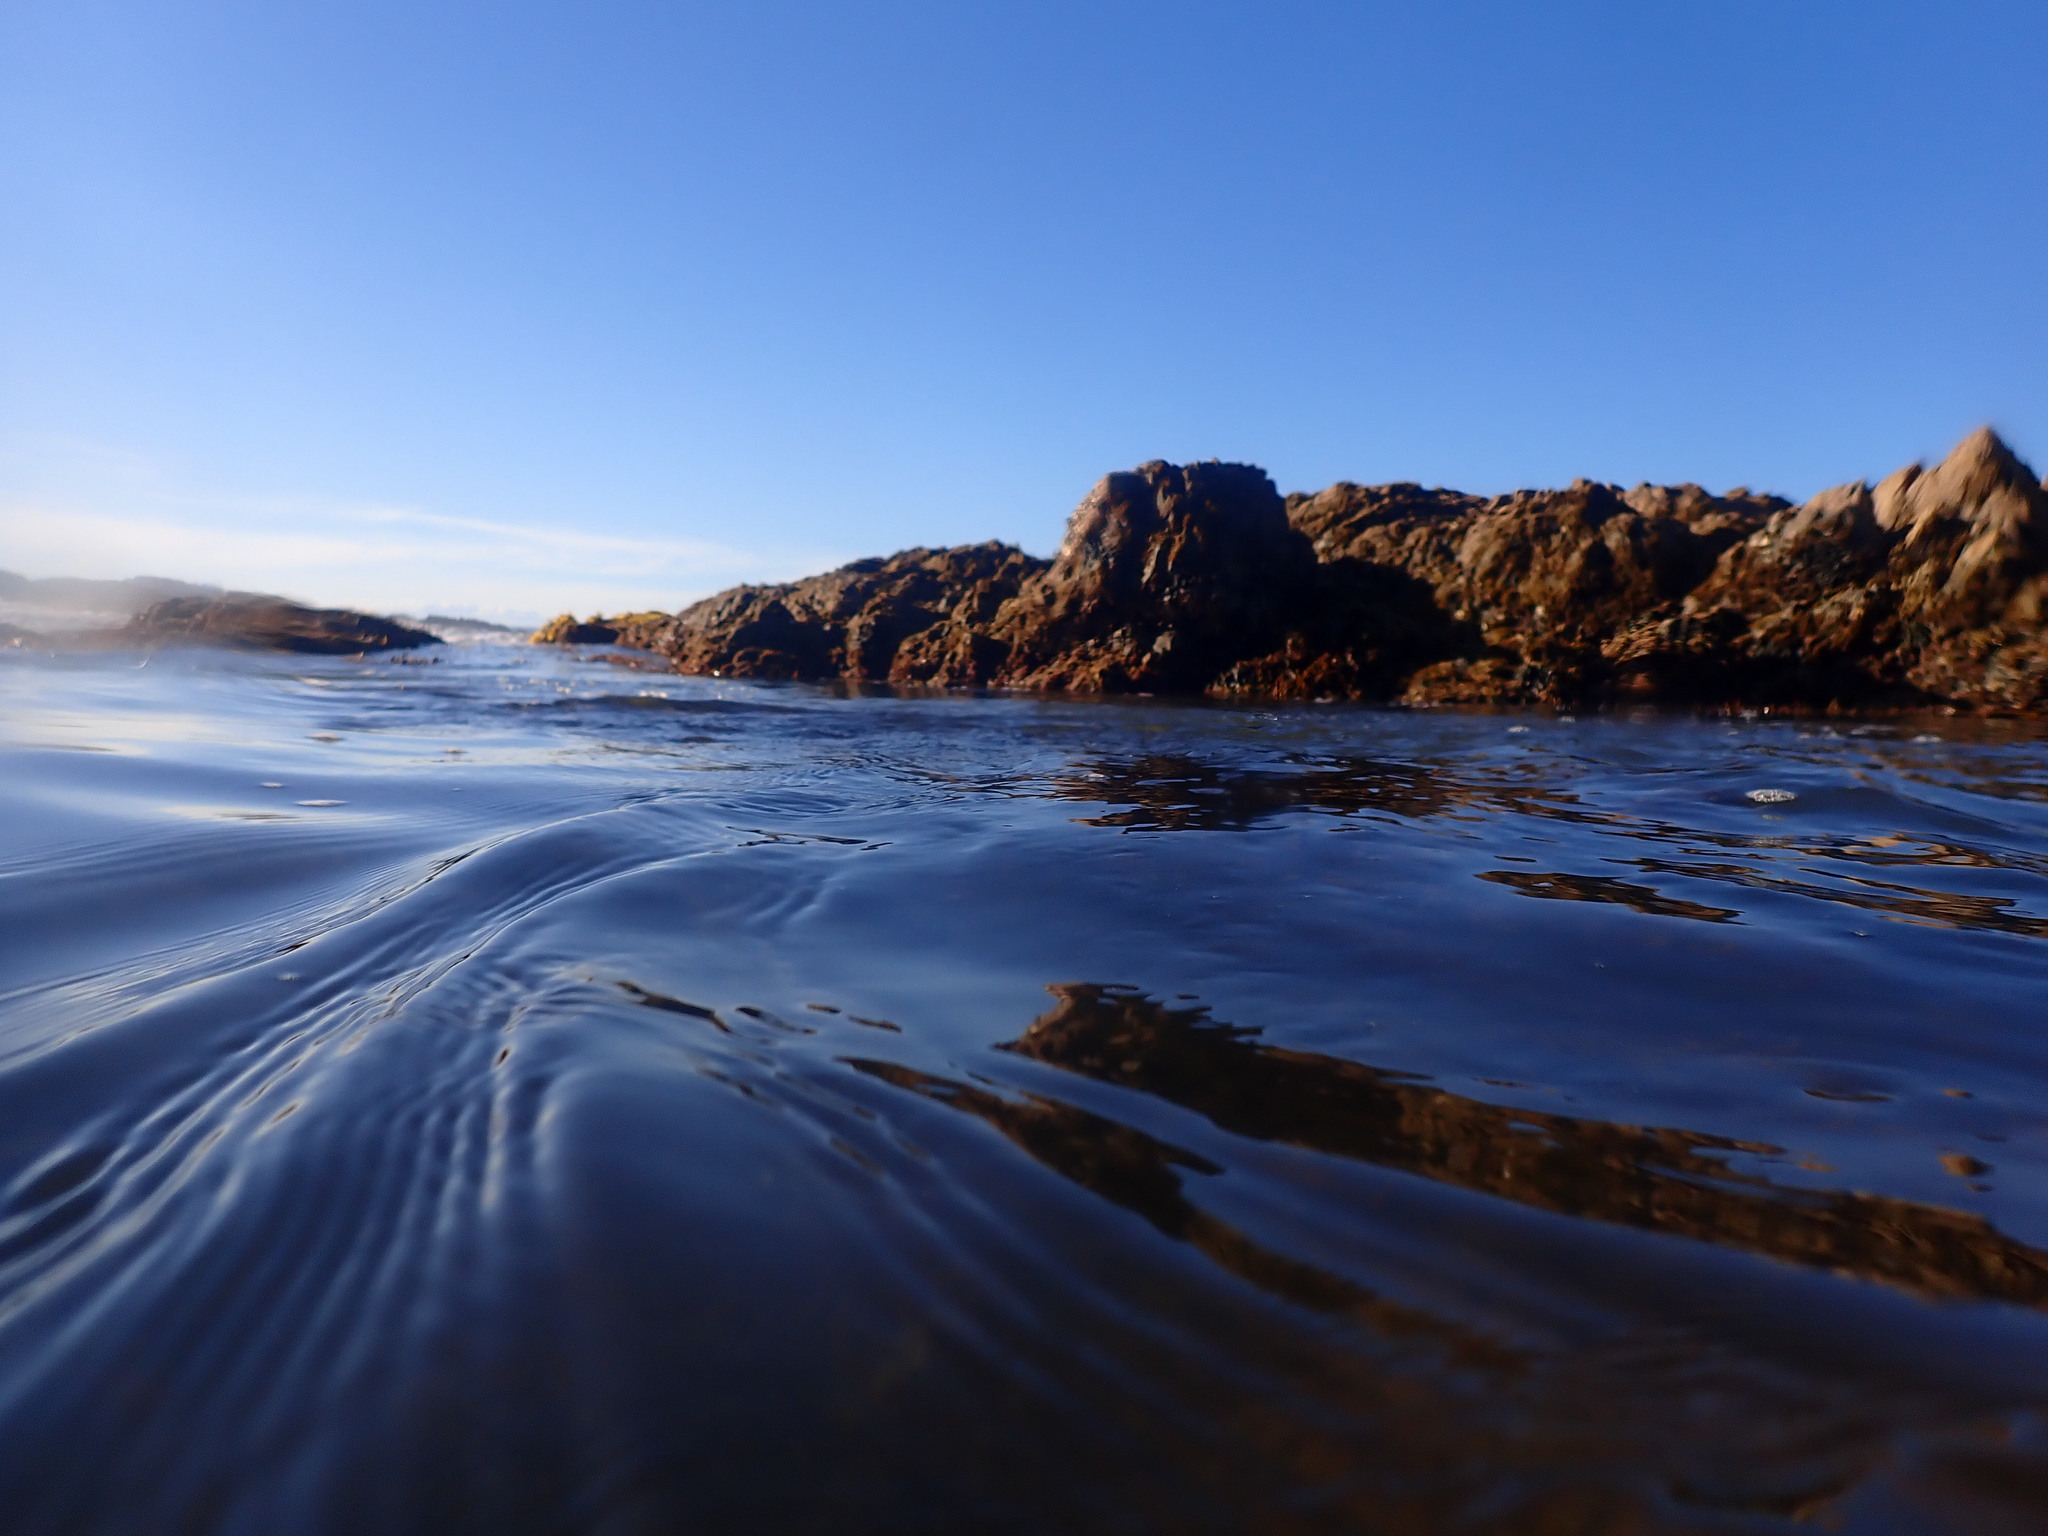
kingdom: Chromista
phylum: Ochrophyta
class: Phaeophyceae
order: Fucales
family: Sargassaceae
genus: Carpophyllum
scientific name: Carpophyllum maschalocarpum
